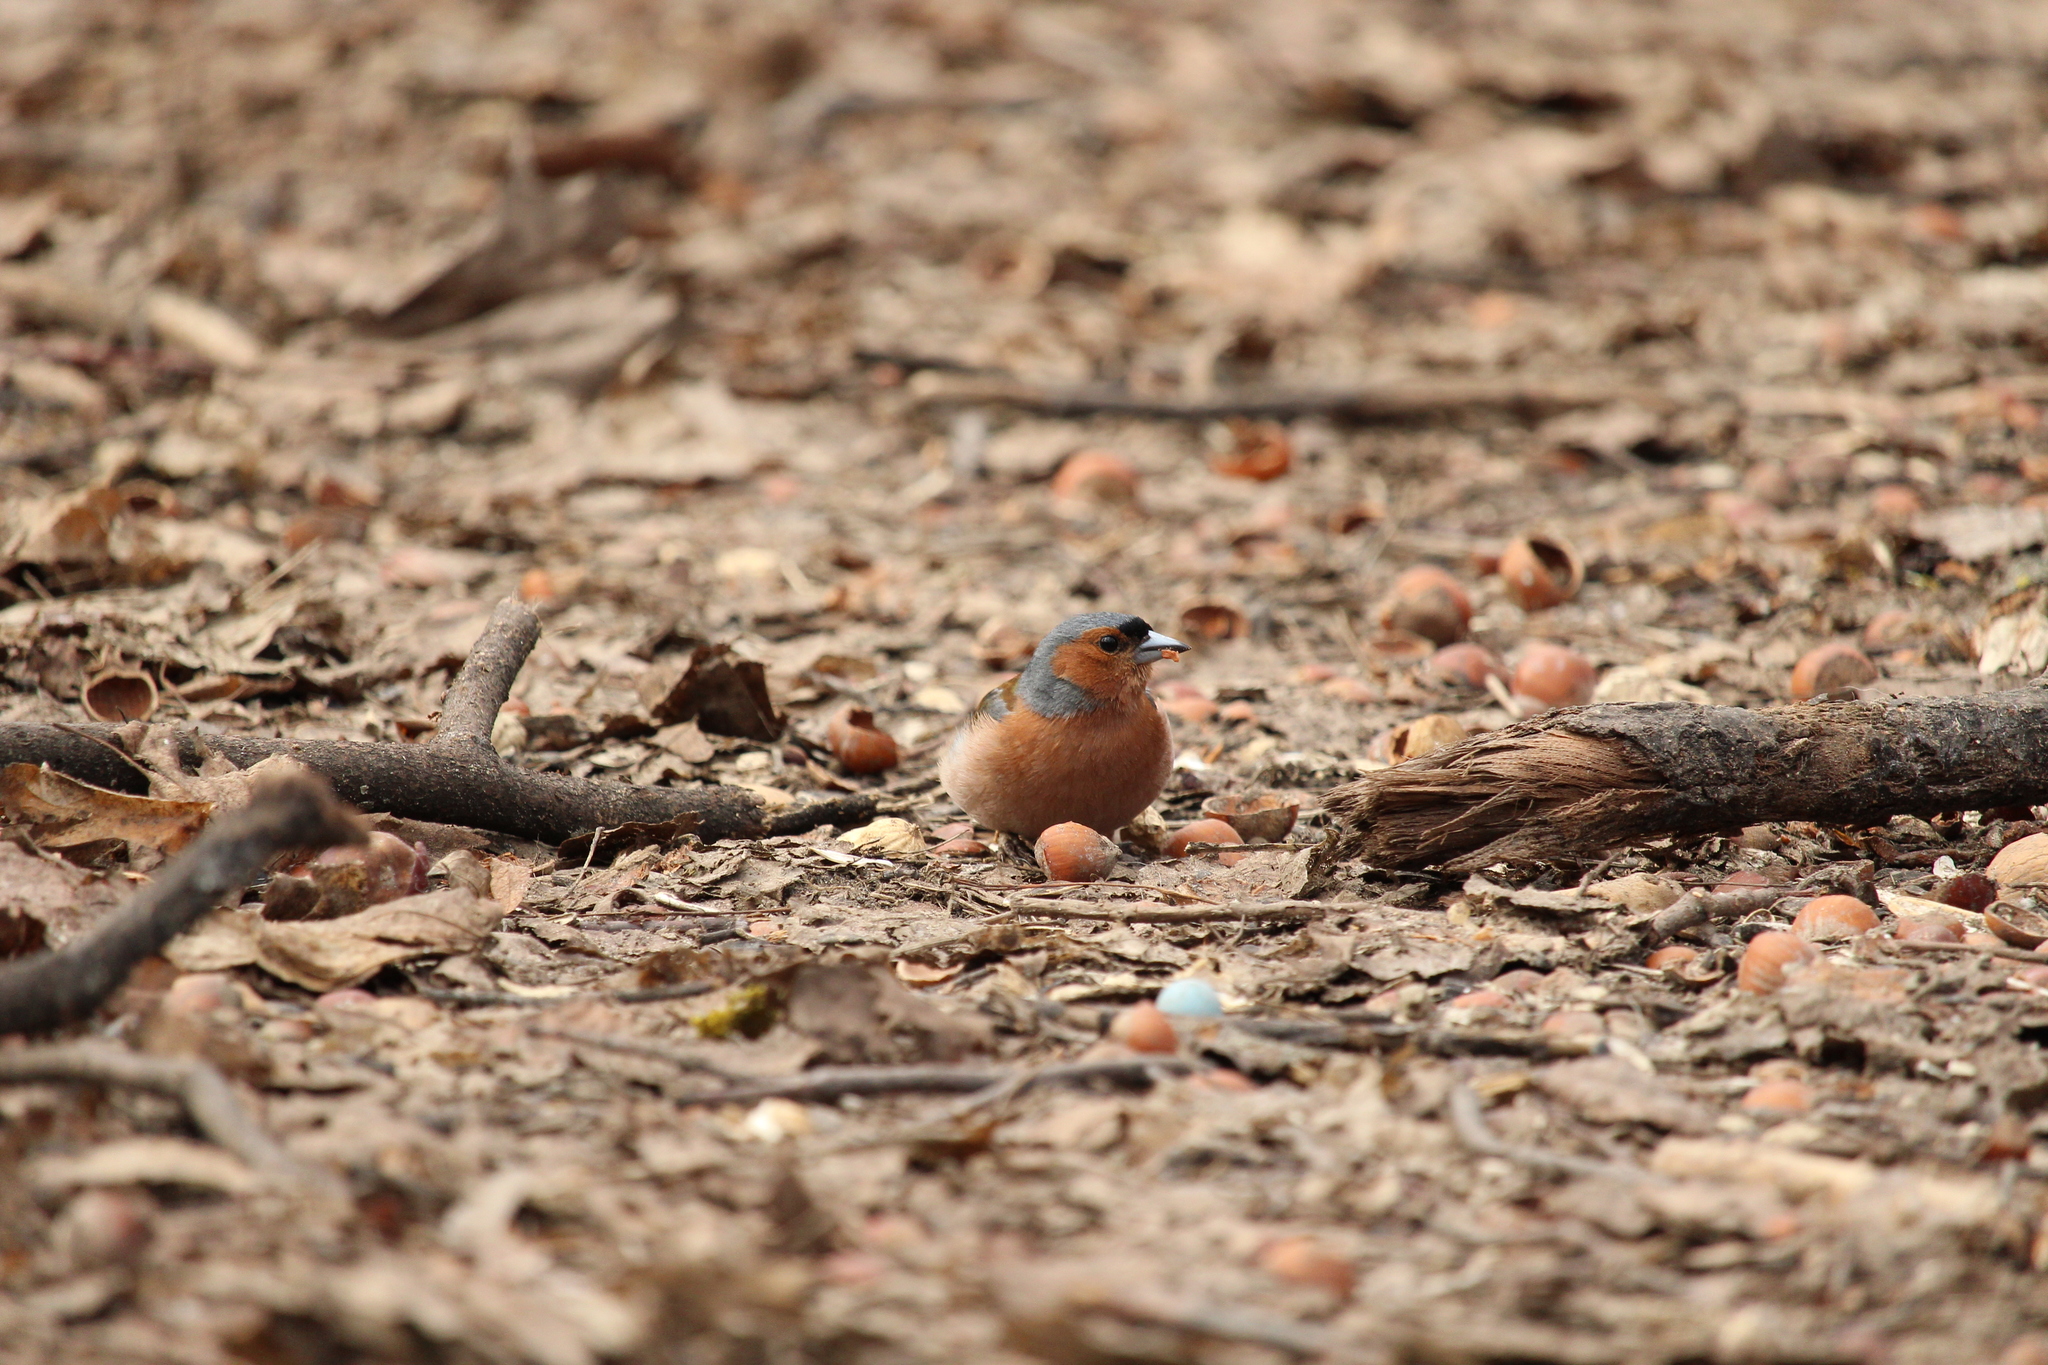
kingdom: Animalia
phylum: Chordata
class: Aves
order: Passeriformes
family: Fringillidae
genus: Fringilla
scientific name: Fringilla coelebs
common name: Common chaffinch
